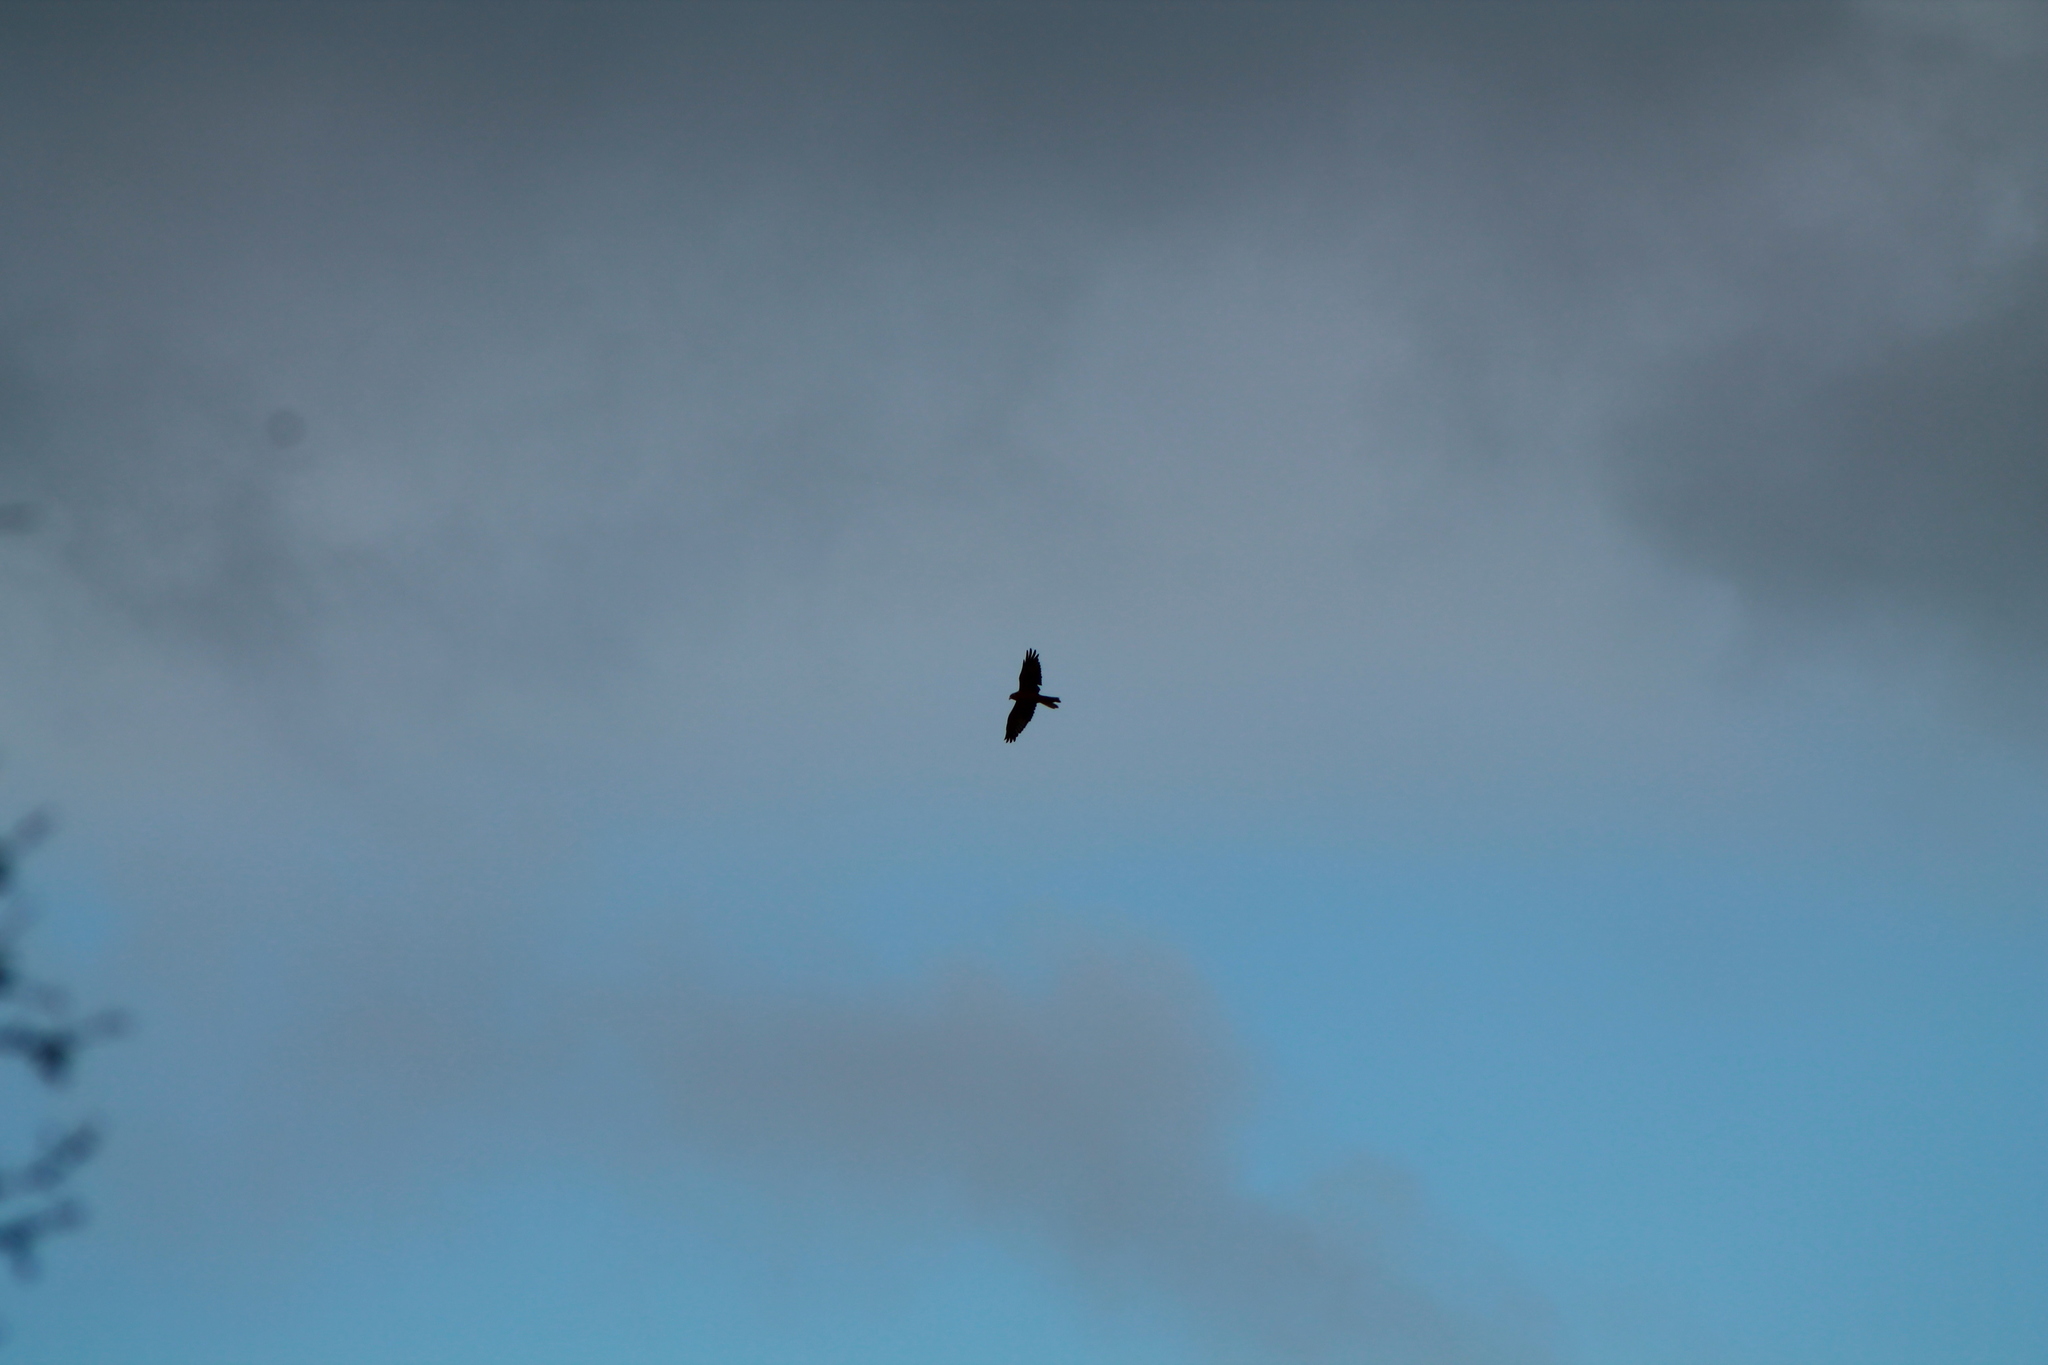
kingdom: Animalia
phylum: Chordata
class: Aves
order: Accipitriformes
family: Accipitridae
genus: Circus
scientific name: Circus approximans
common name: Swamp harrier
